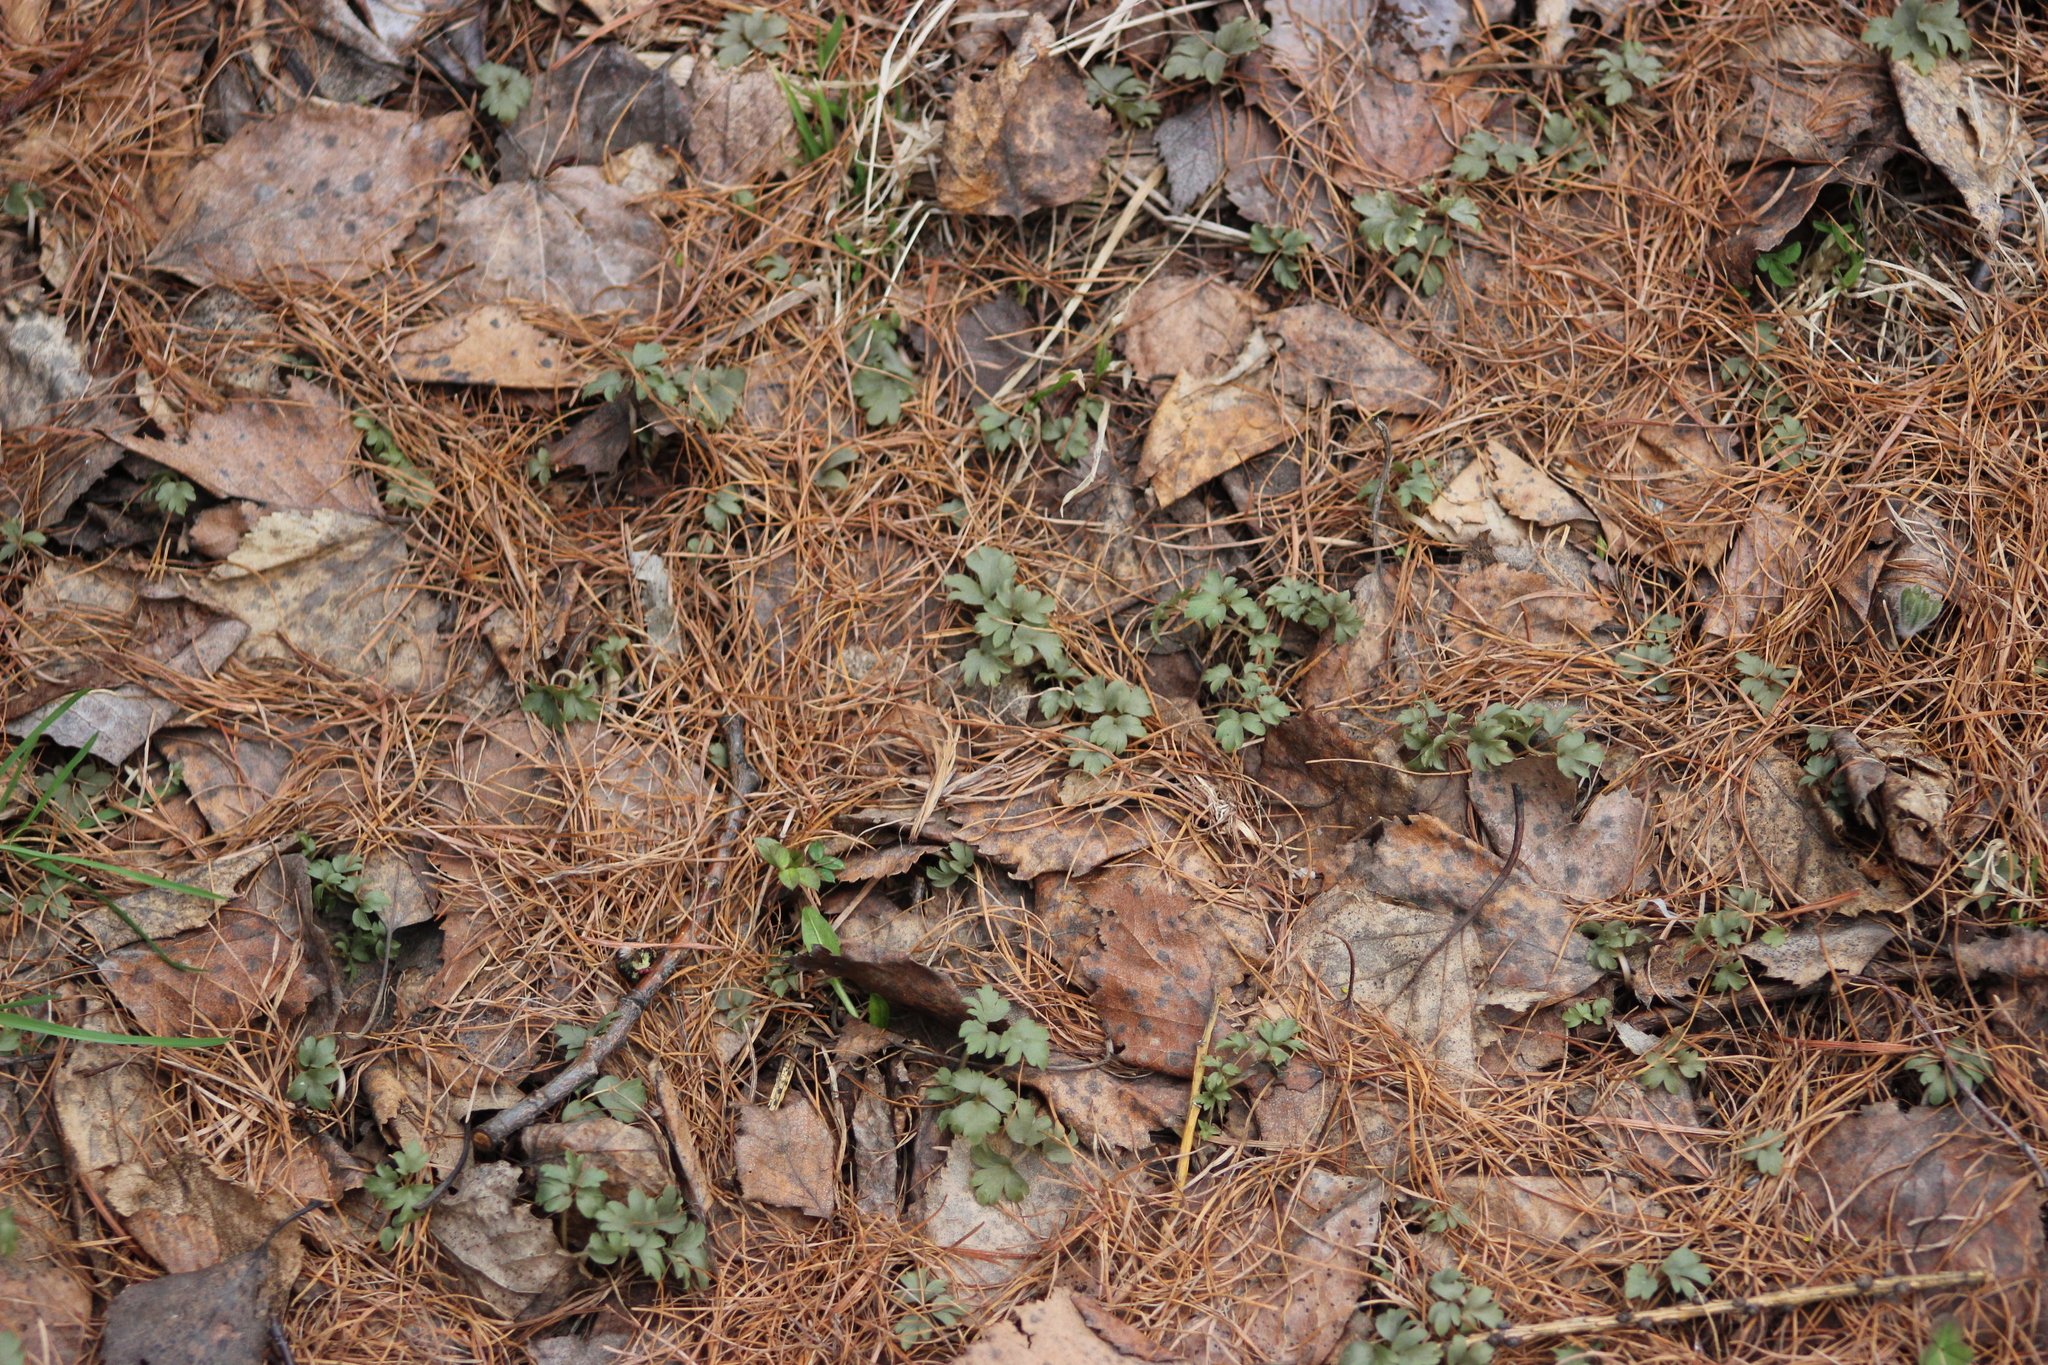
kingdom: Plantae
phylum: Tracheophyta
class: Magnoliopsida
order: Dipsacales
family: Viburnaceae
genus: Adoxa
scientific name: Adoxa moschatellina
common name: Moschatel
